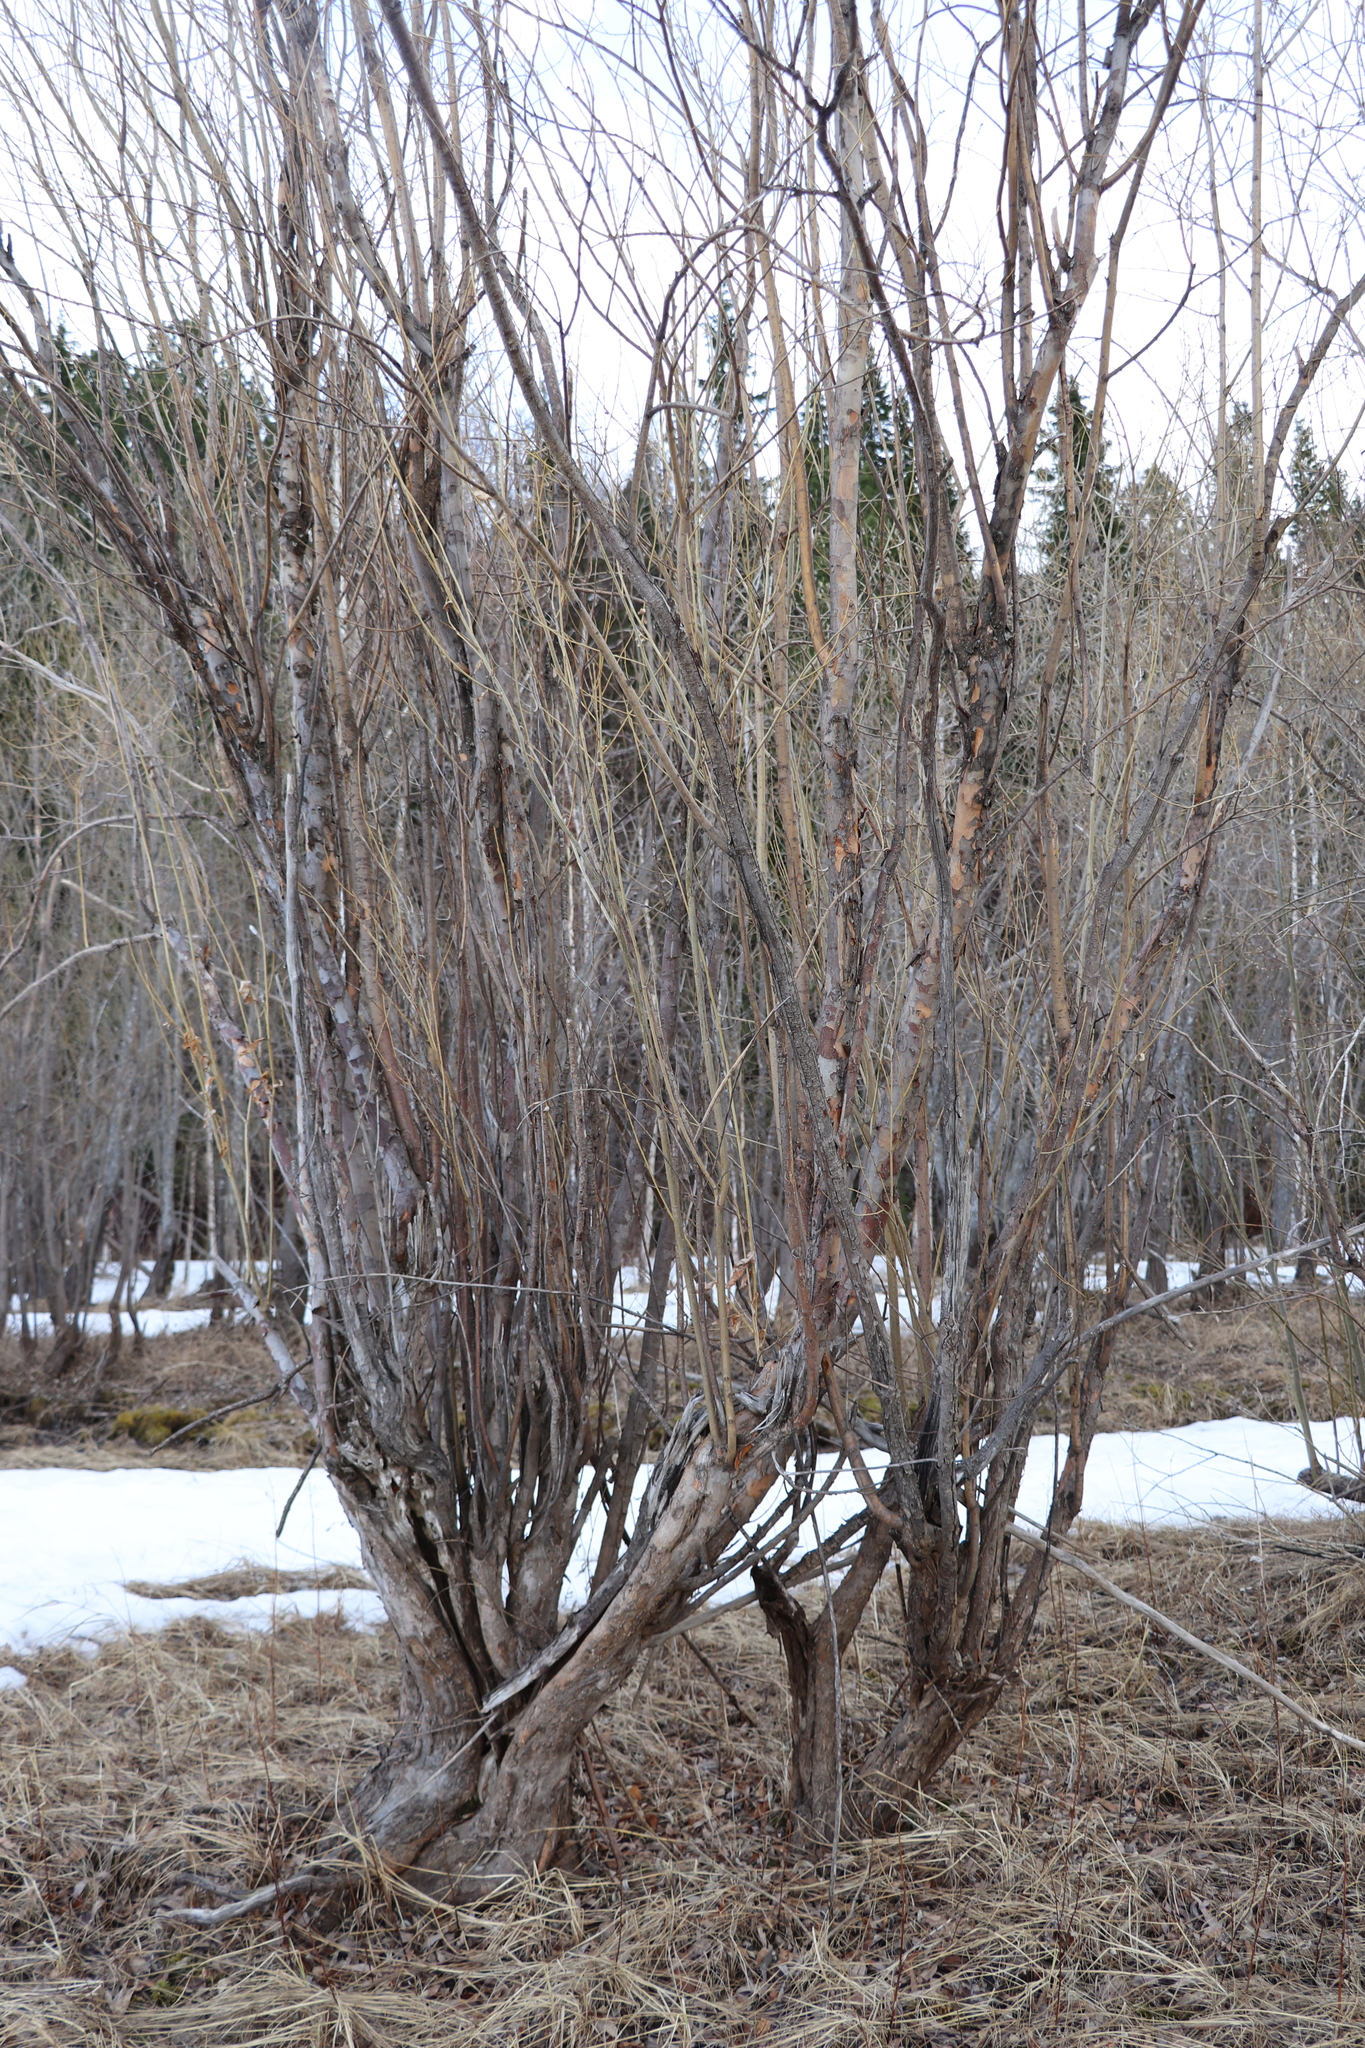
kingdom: Plantae
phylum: Tracheophyta
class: Magnoliopsida
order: Malpighiales
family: Salicaceae
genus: Salix
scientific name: Salix triandra
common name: Almond willow
